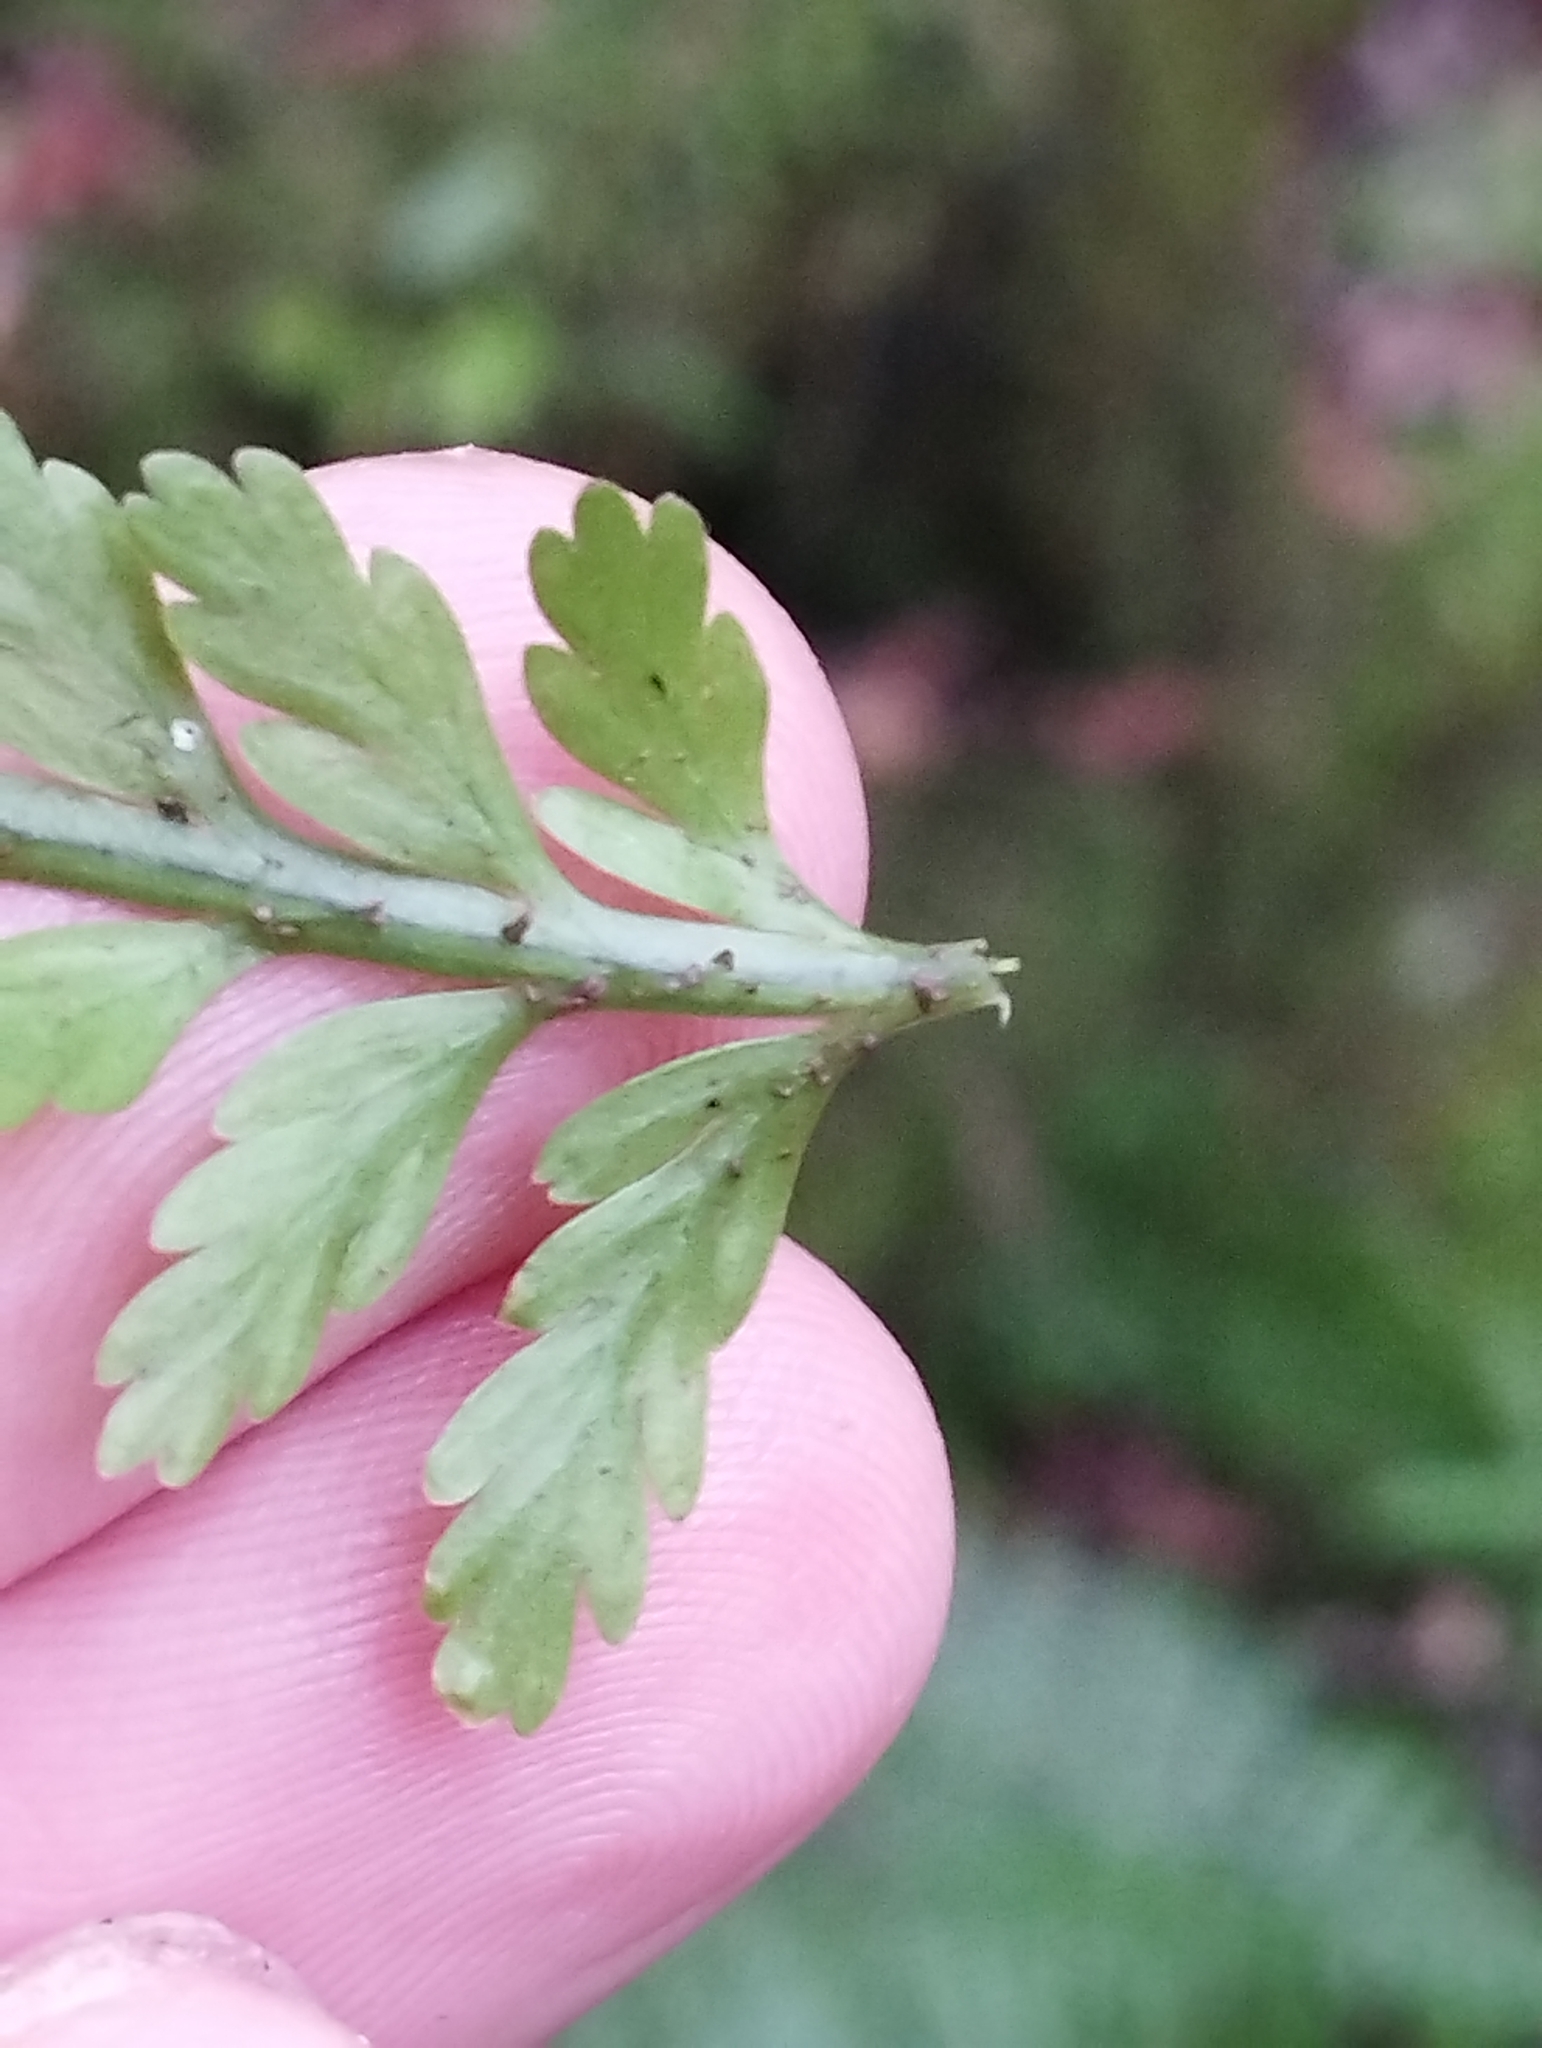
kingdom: Plantae
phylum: Tracheophyta
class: Polypodiopsida
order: Polypodiales
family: Aspleniaceae
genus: Asplenium
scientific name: Asplenium bulbiferum
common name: Mother fern
